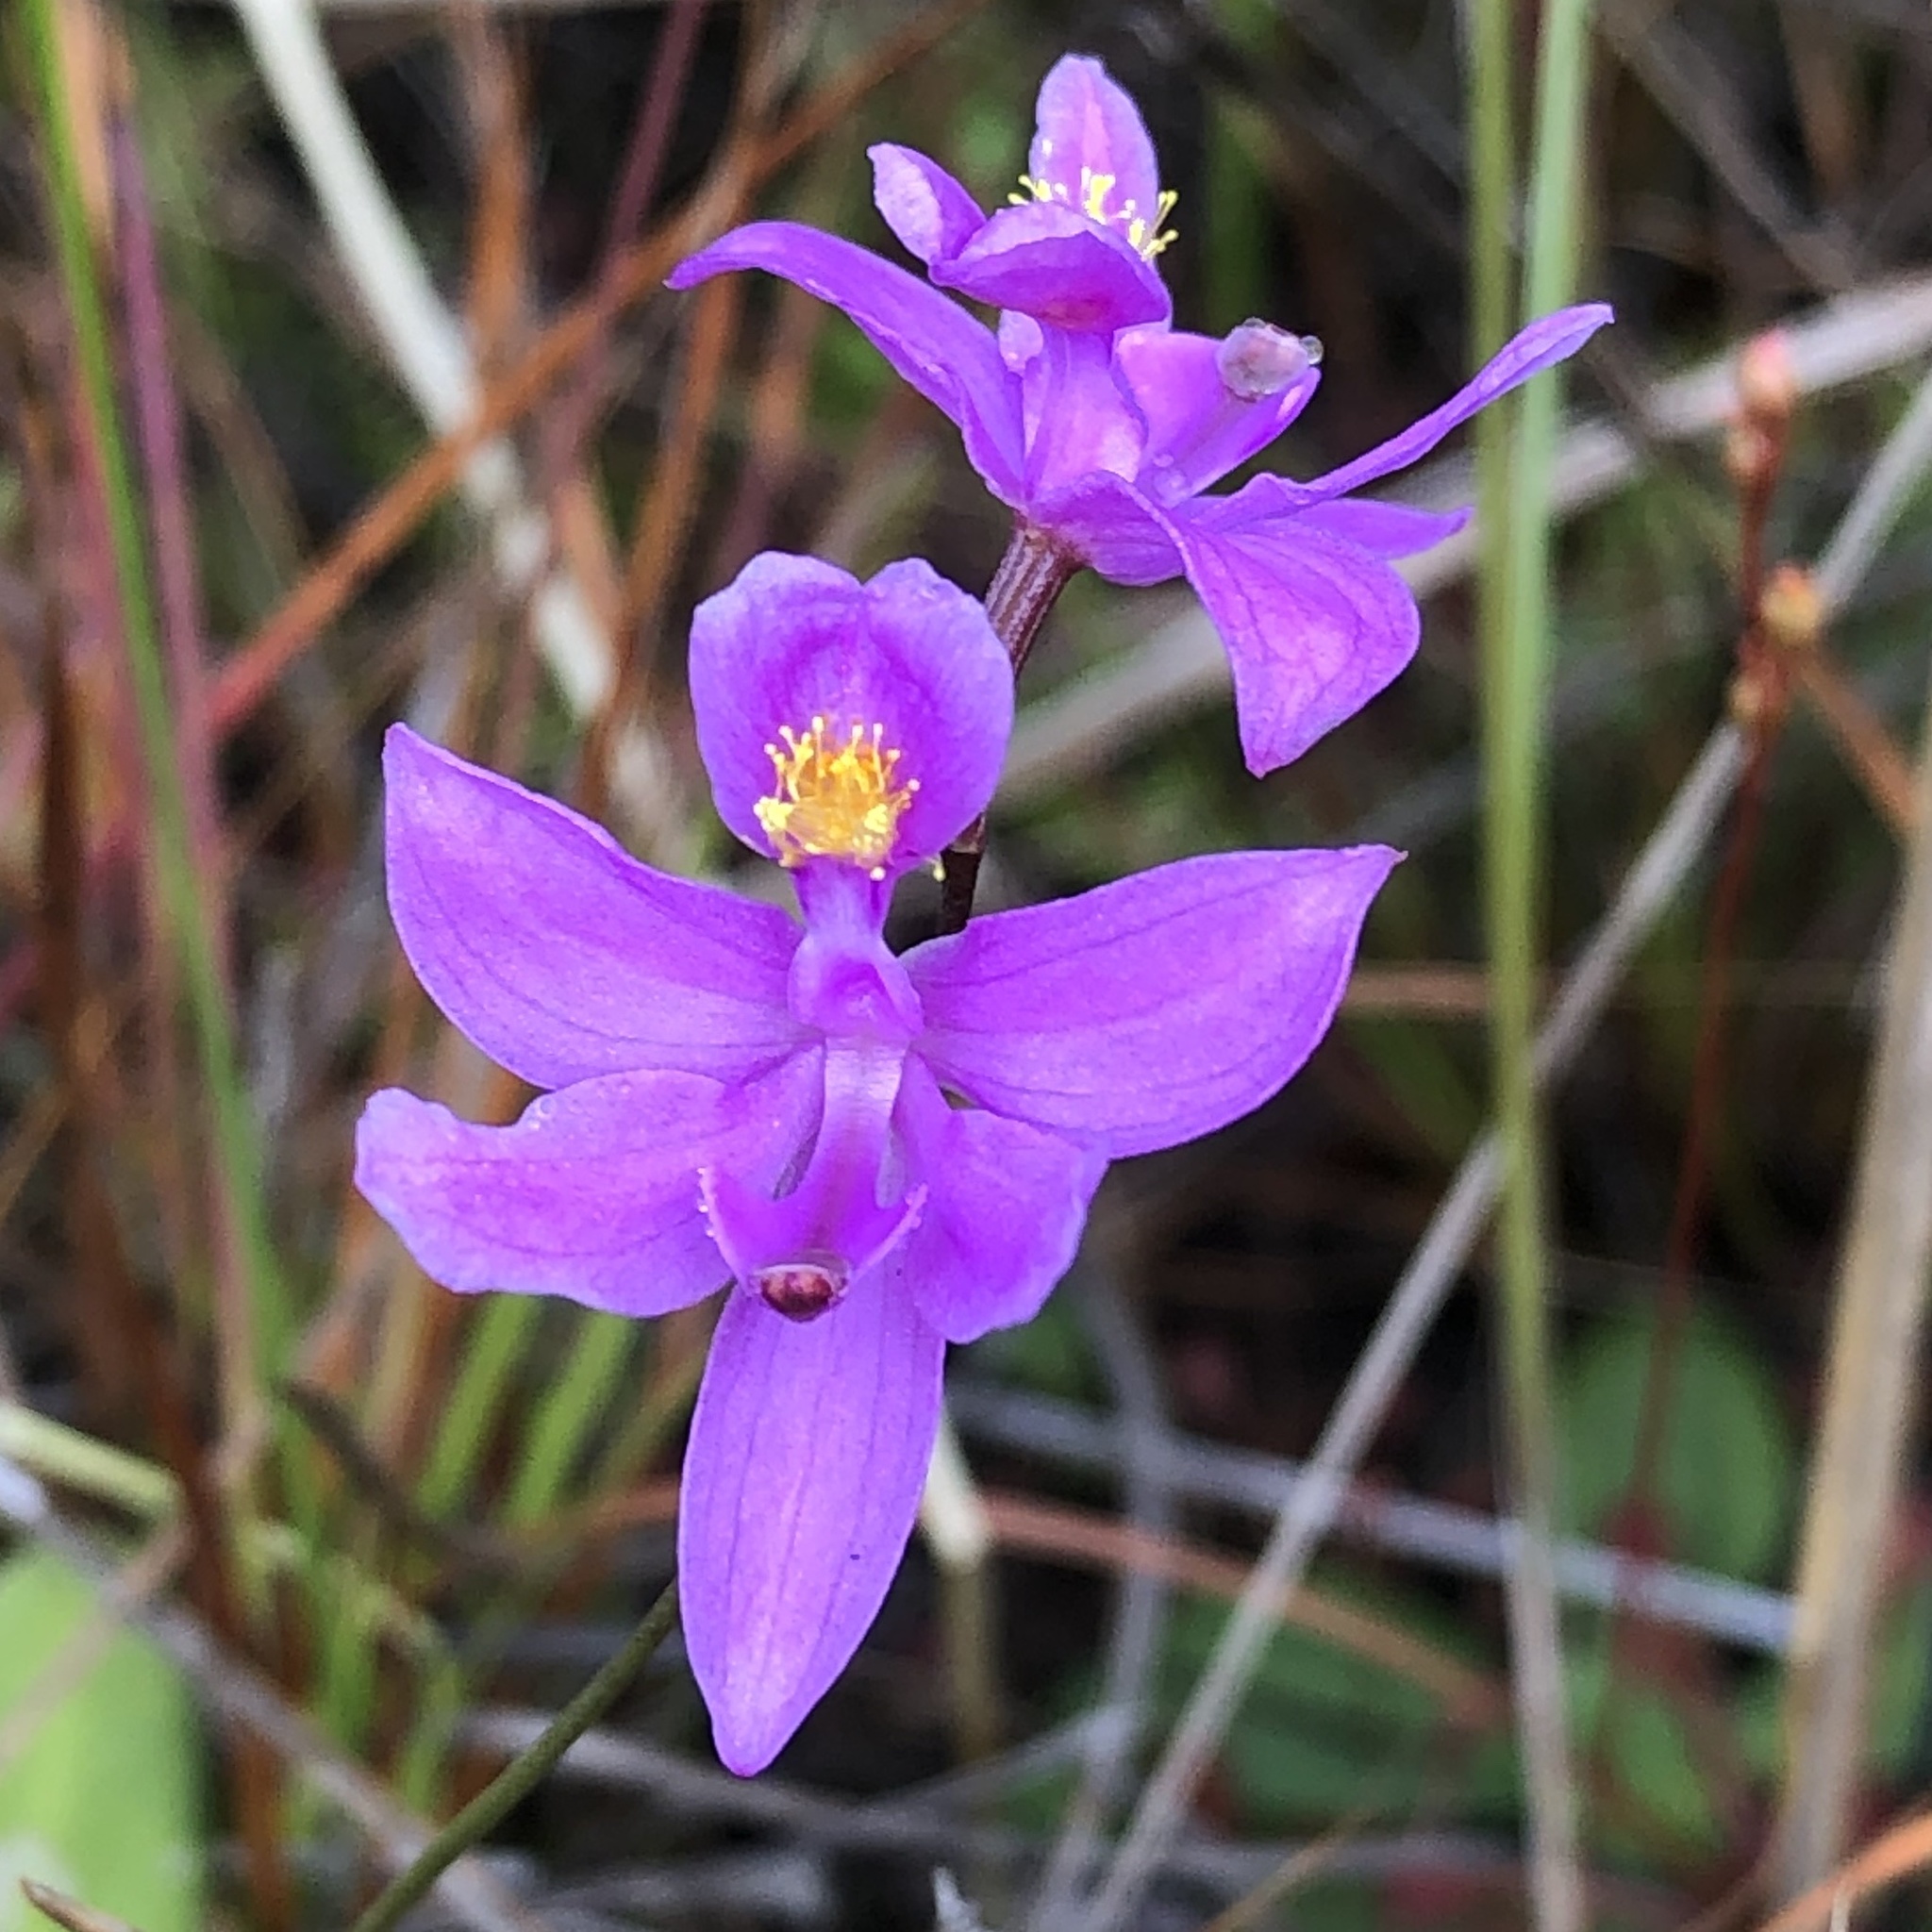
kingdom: Plantae
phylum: Tracheophyta
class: Liliopsida
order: Asparagales
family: Orchidaceae
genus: Calopogon
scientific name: Calopogon barbatus
